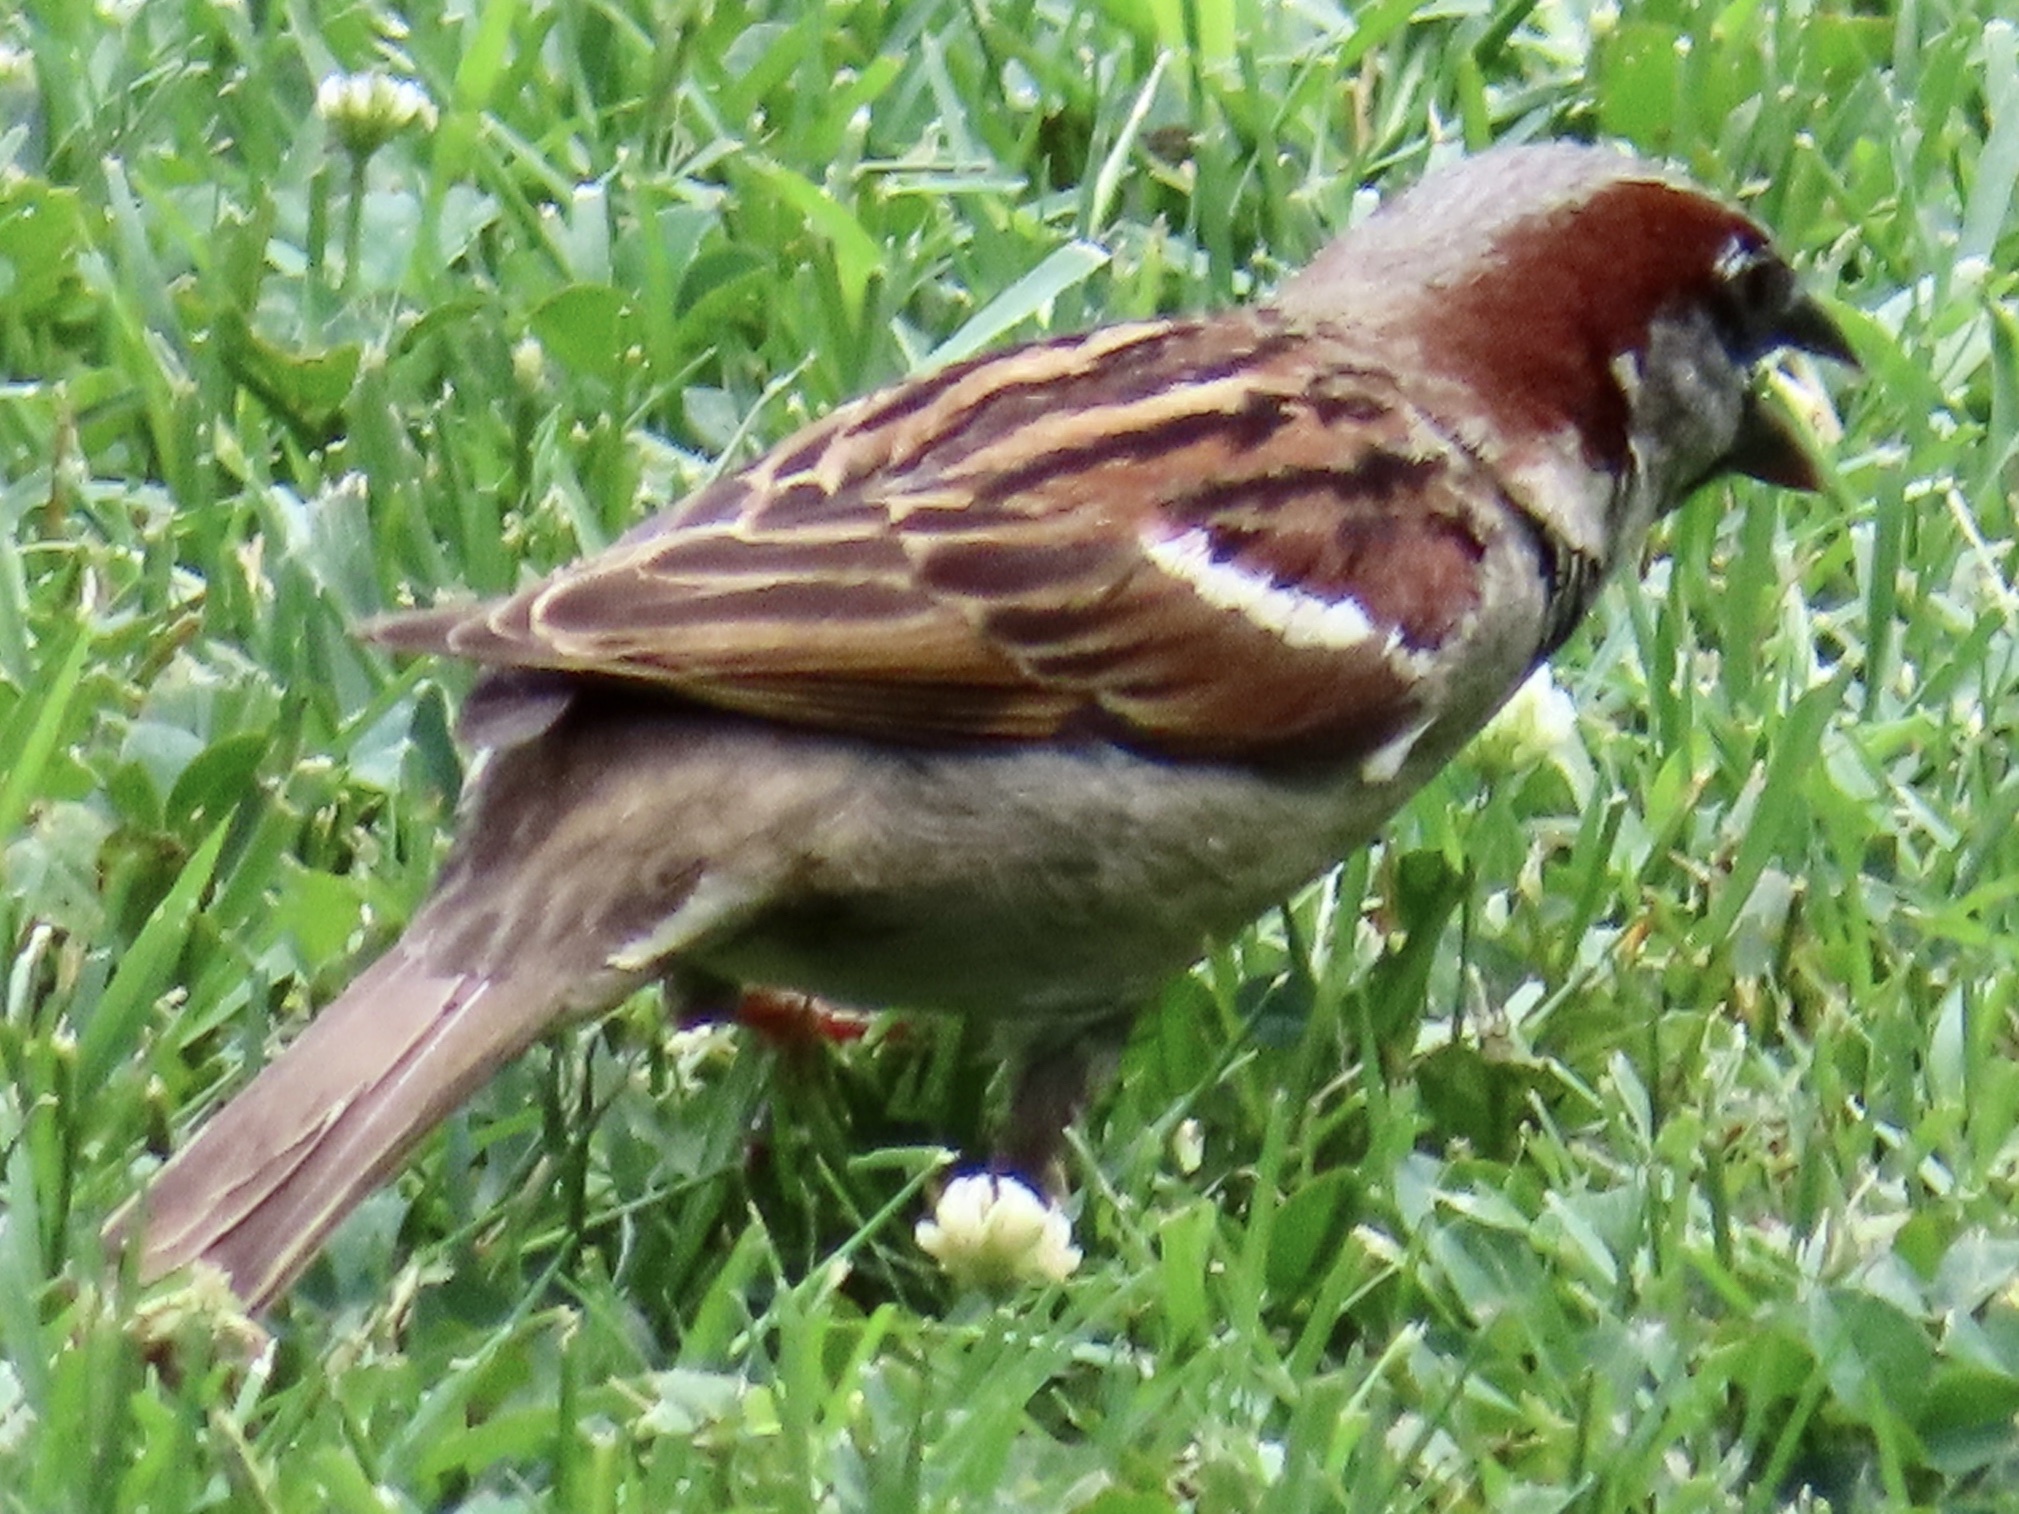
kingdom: Animalia
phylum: Chordata
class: Aves
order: Passeriformes
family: Passeridae
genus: Passer
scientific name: Passer domesticus
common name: House sparrow
